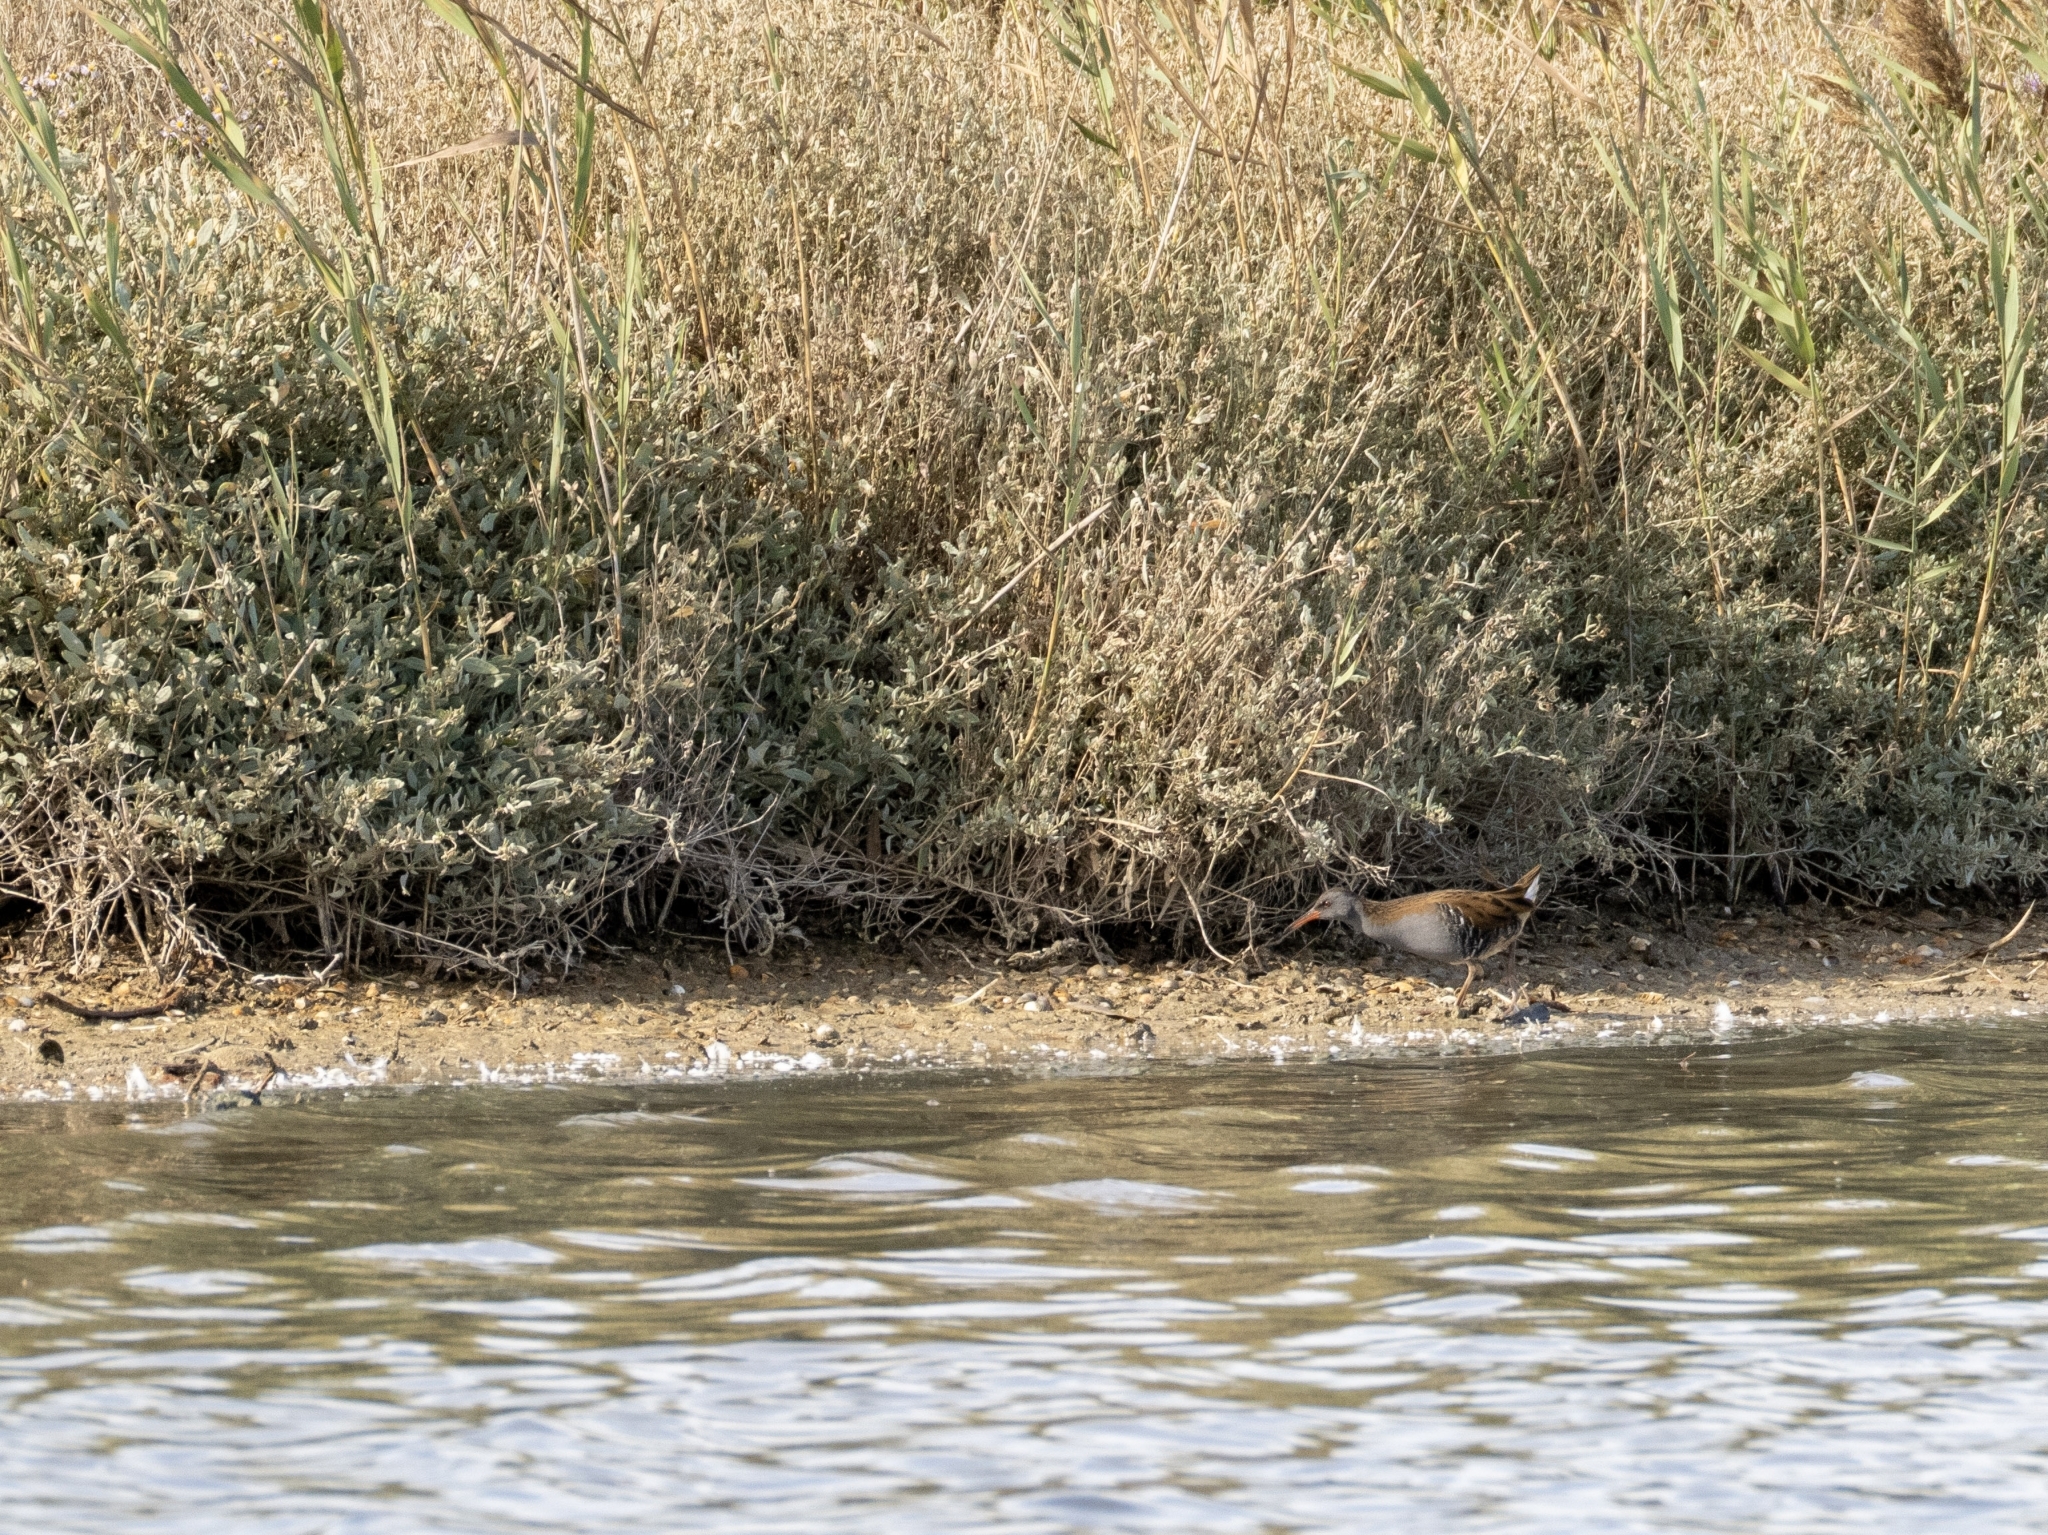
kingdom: Animalia
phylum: Chordata
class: Aves
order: Gruiformes
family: Rallidae
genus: Rallus
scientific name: Rallus aquaticus
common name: Water rail
